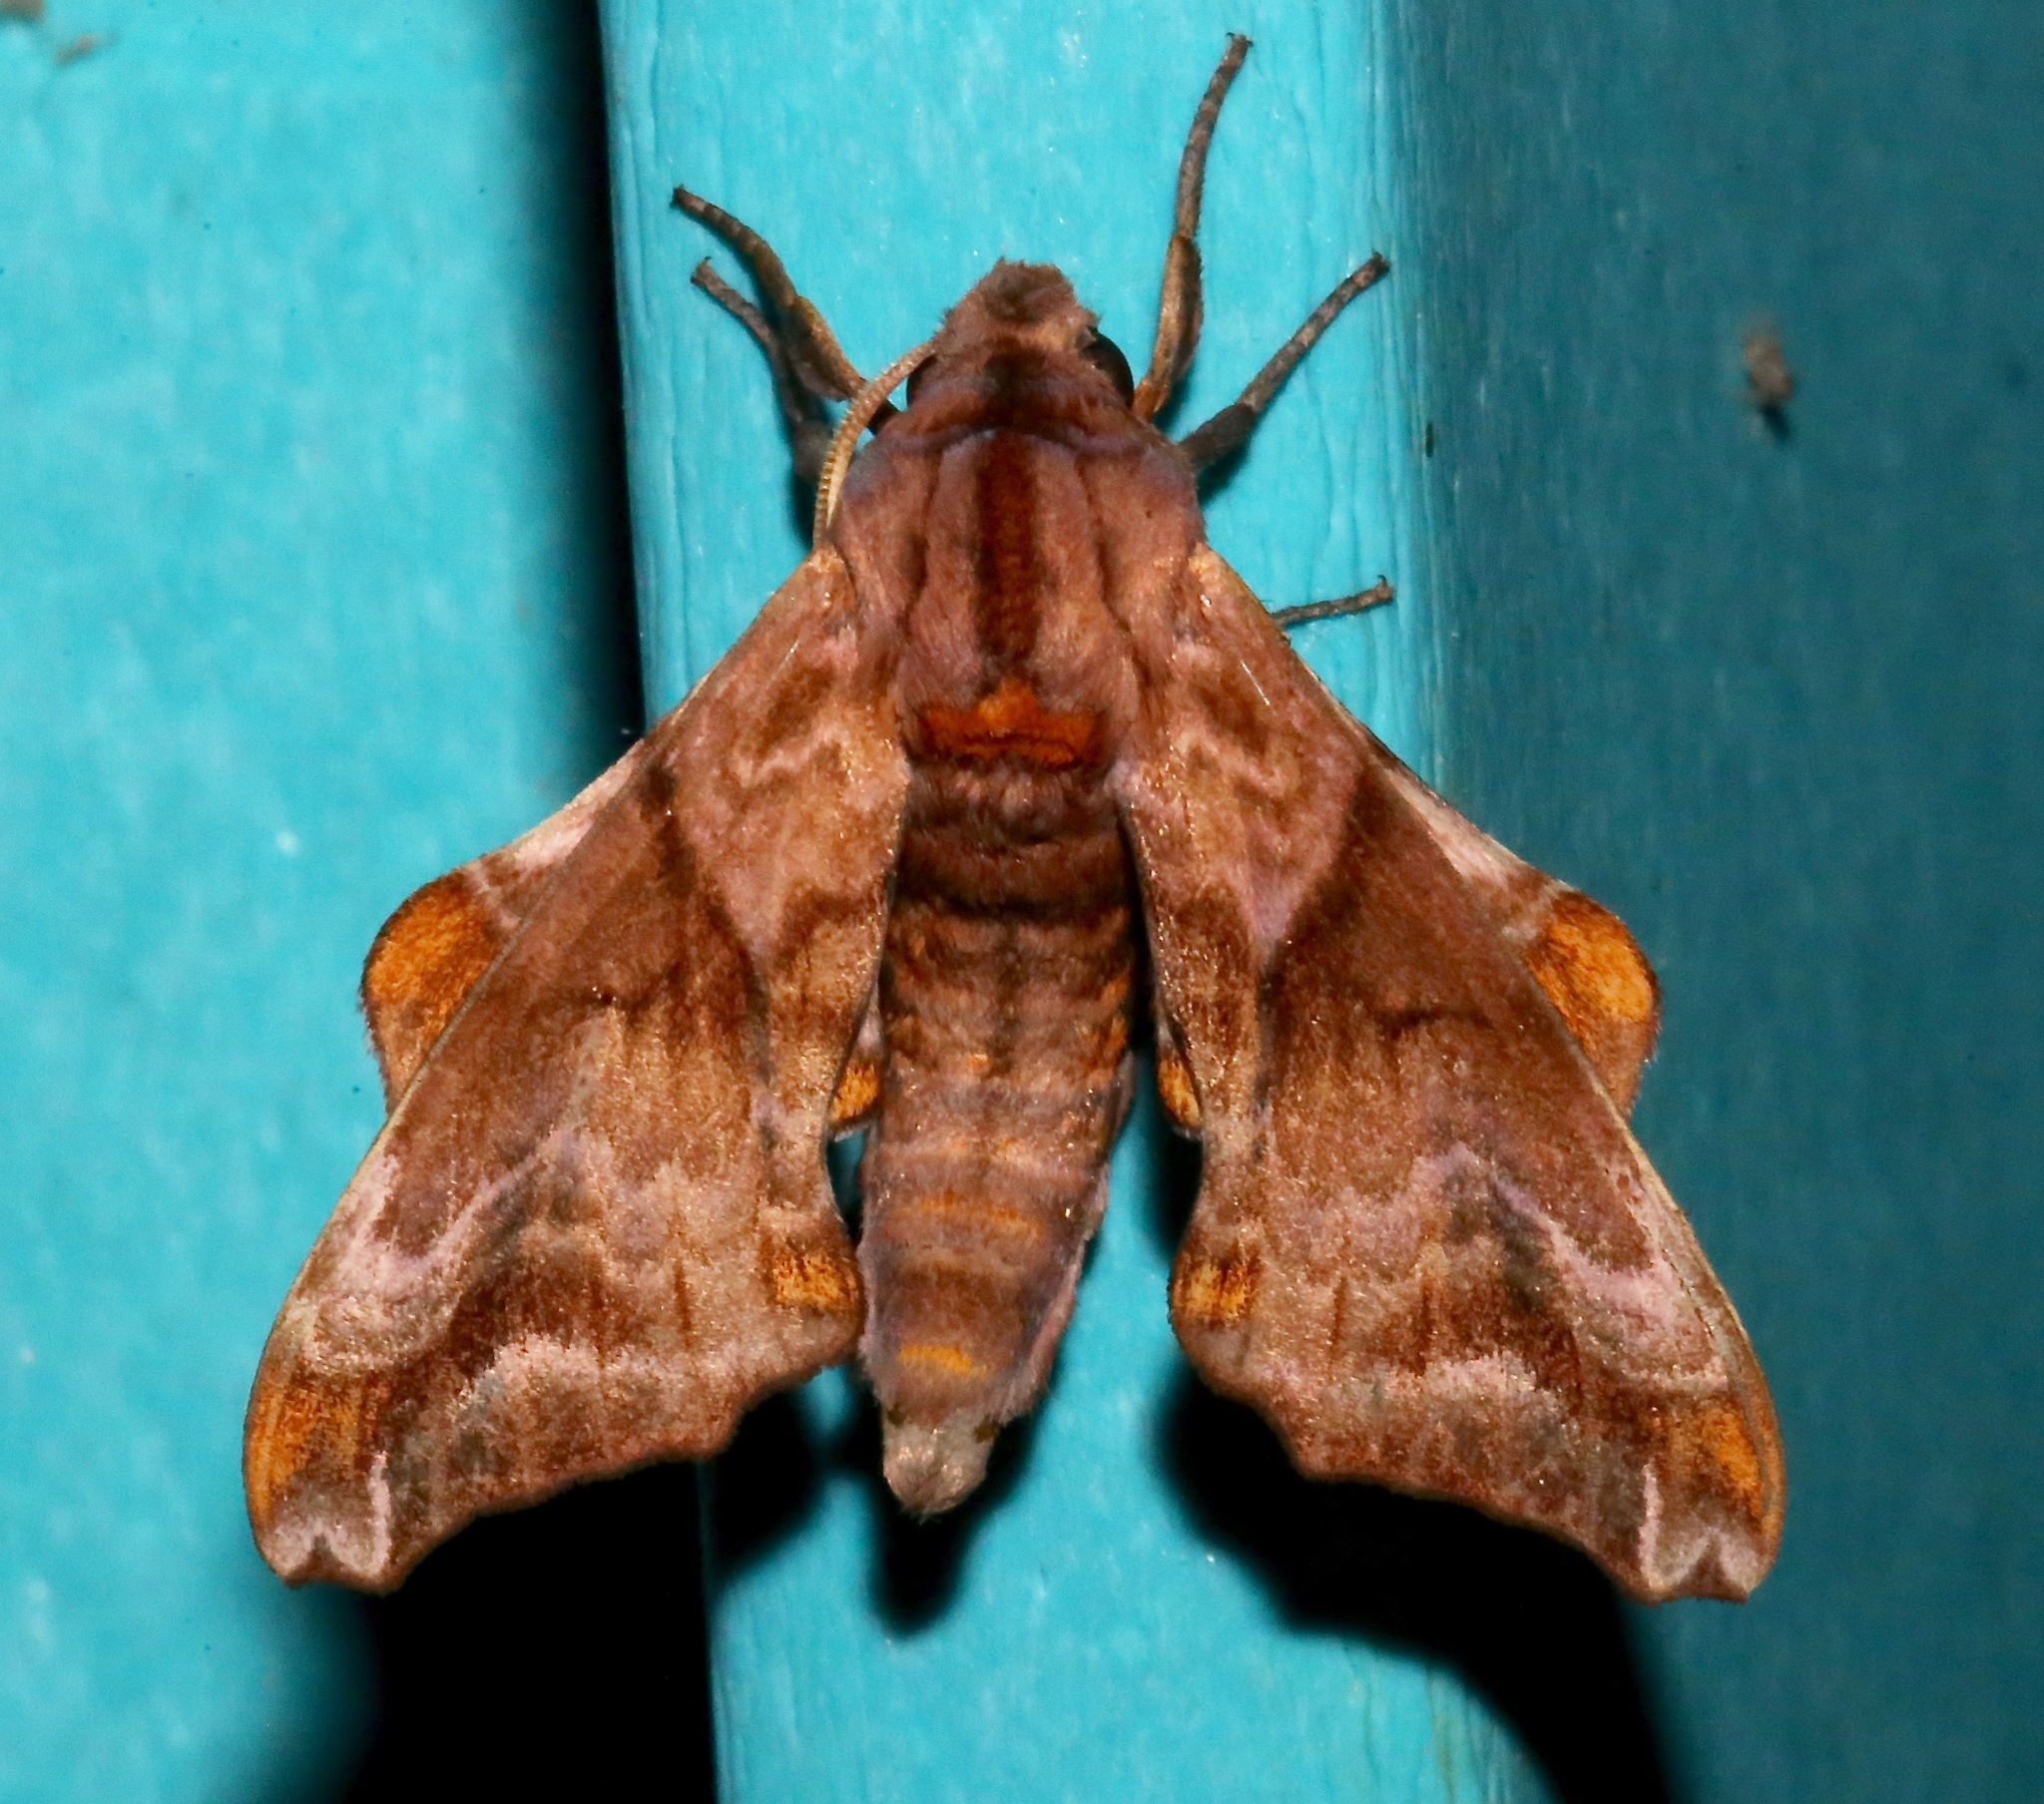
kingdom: Animalia
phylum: Arthropoda
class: Insecta
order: Lepidoptera
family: Sphingidae
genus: Paonias
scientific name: Paonias myops
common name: Small-eyed sphinx
